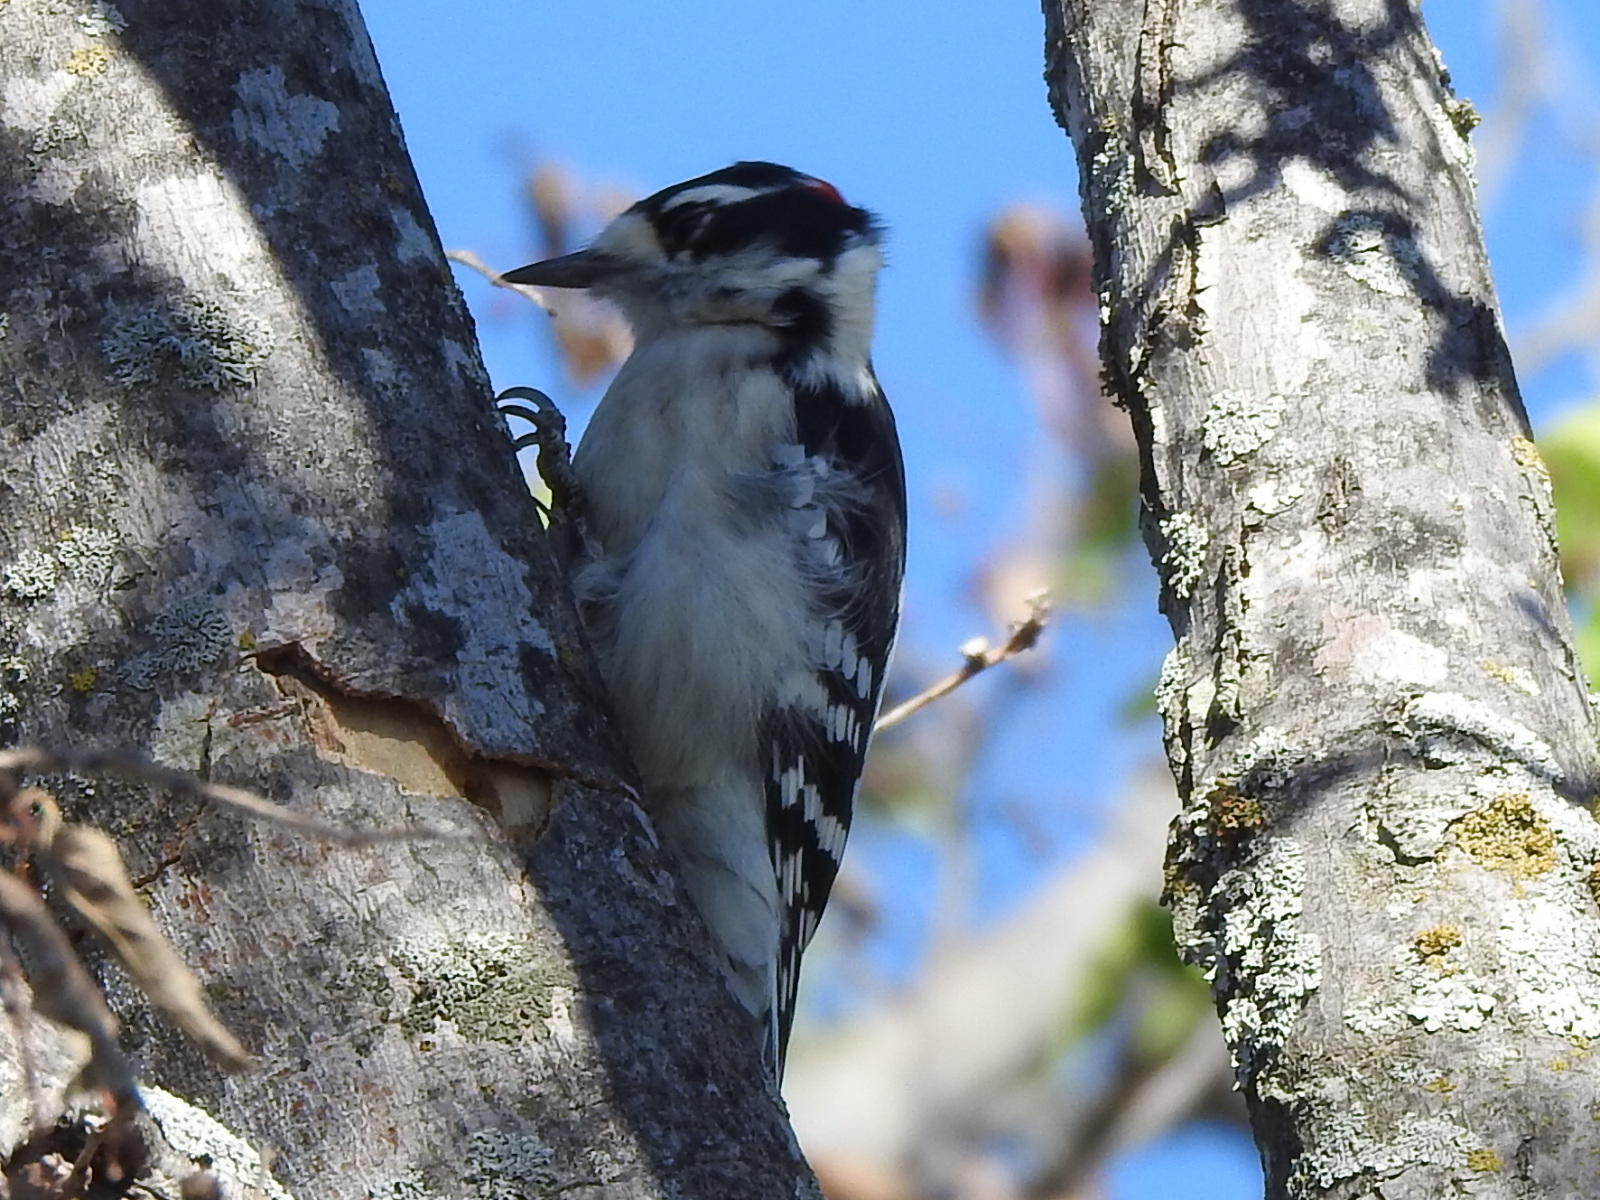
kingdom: Animalia
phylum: Chordata
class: Aves
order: Piciformes
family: Picidae
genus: Dryobates
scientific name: Dryobates pubescens
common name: Downy woodpecker
